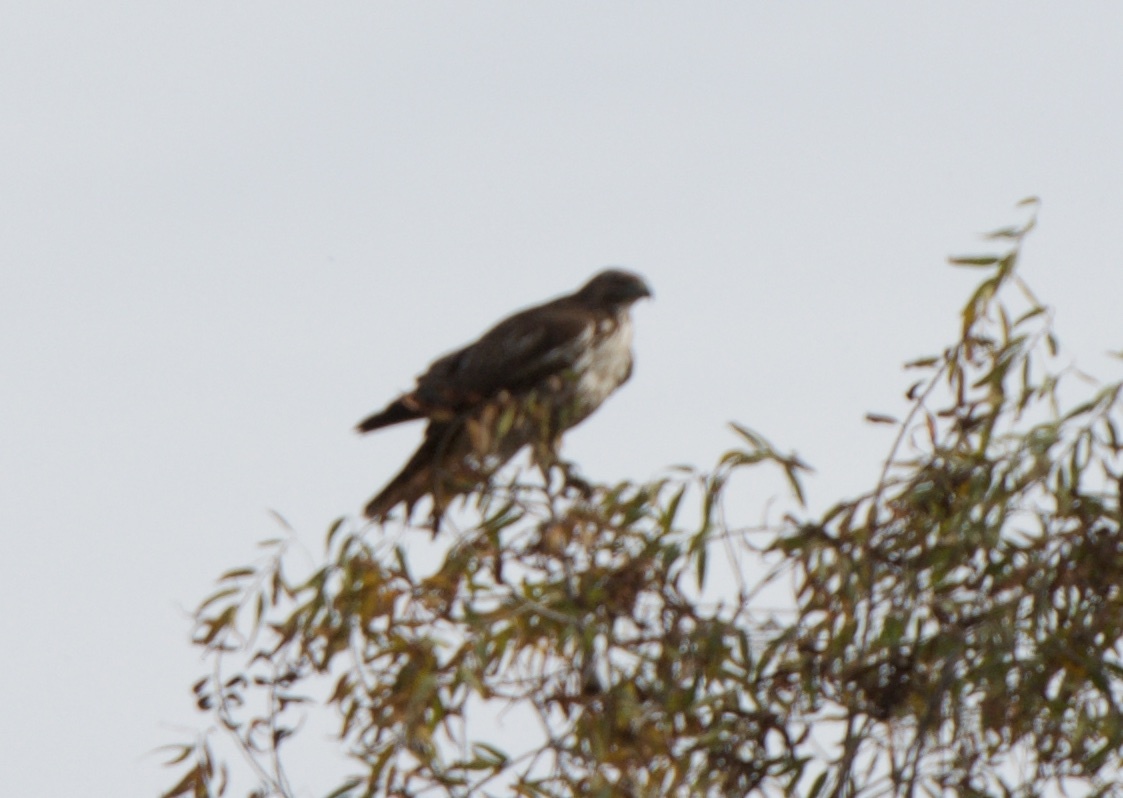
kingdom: Animalia
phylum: Chordata
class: Aves
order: Accipitriformes
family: Accipitridae
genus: Buteo
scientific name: Buteo jamaicensis
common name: Red-tailed hawk
